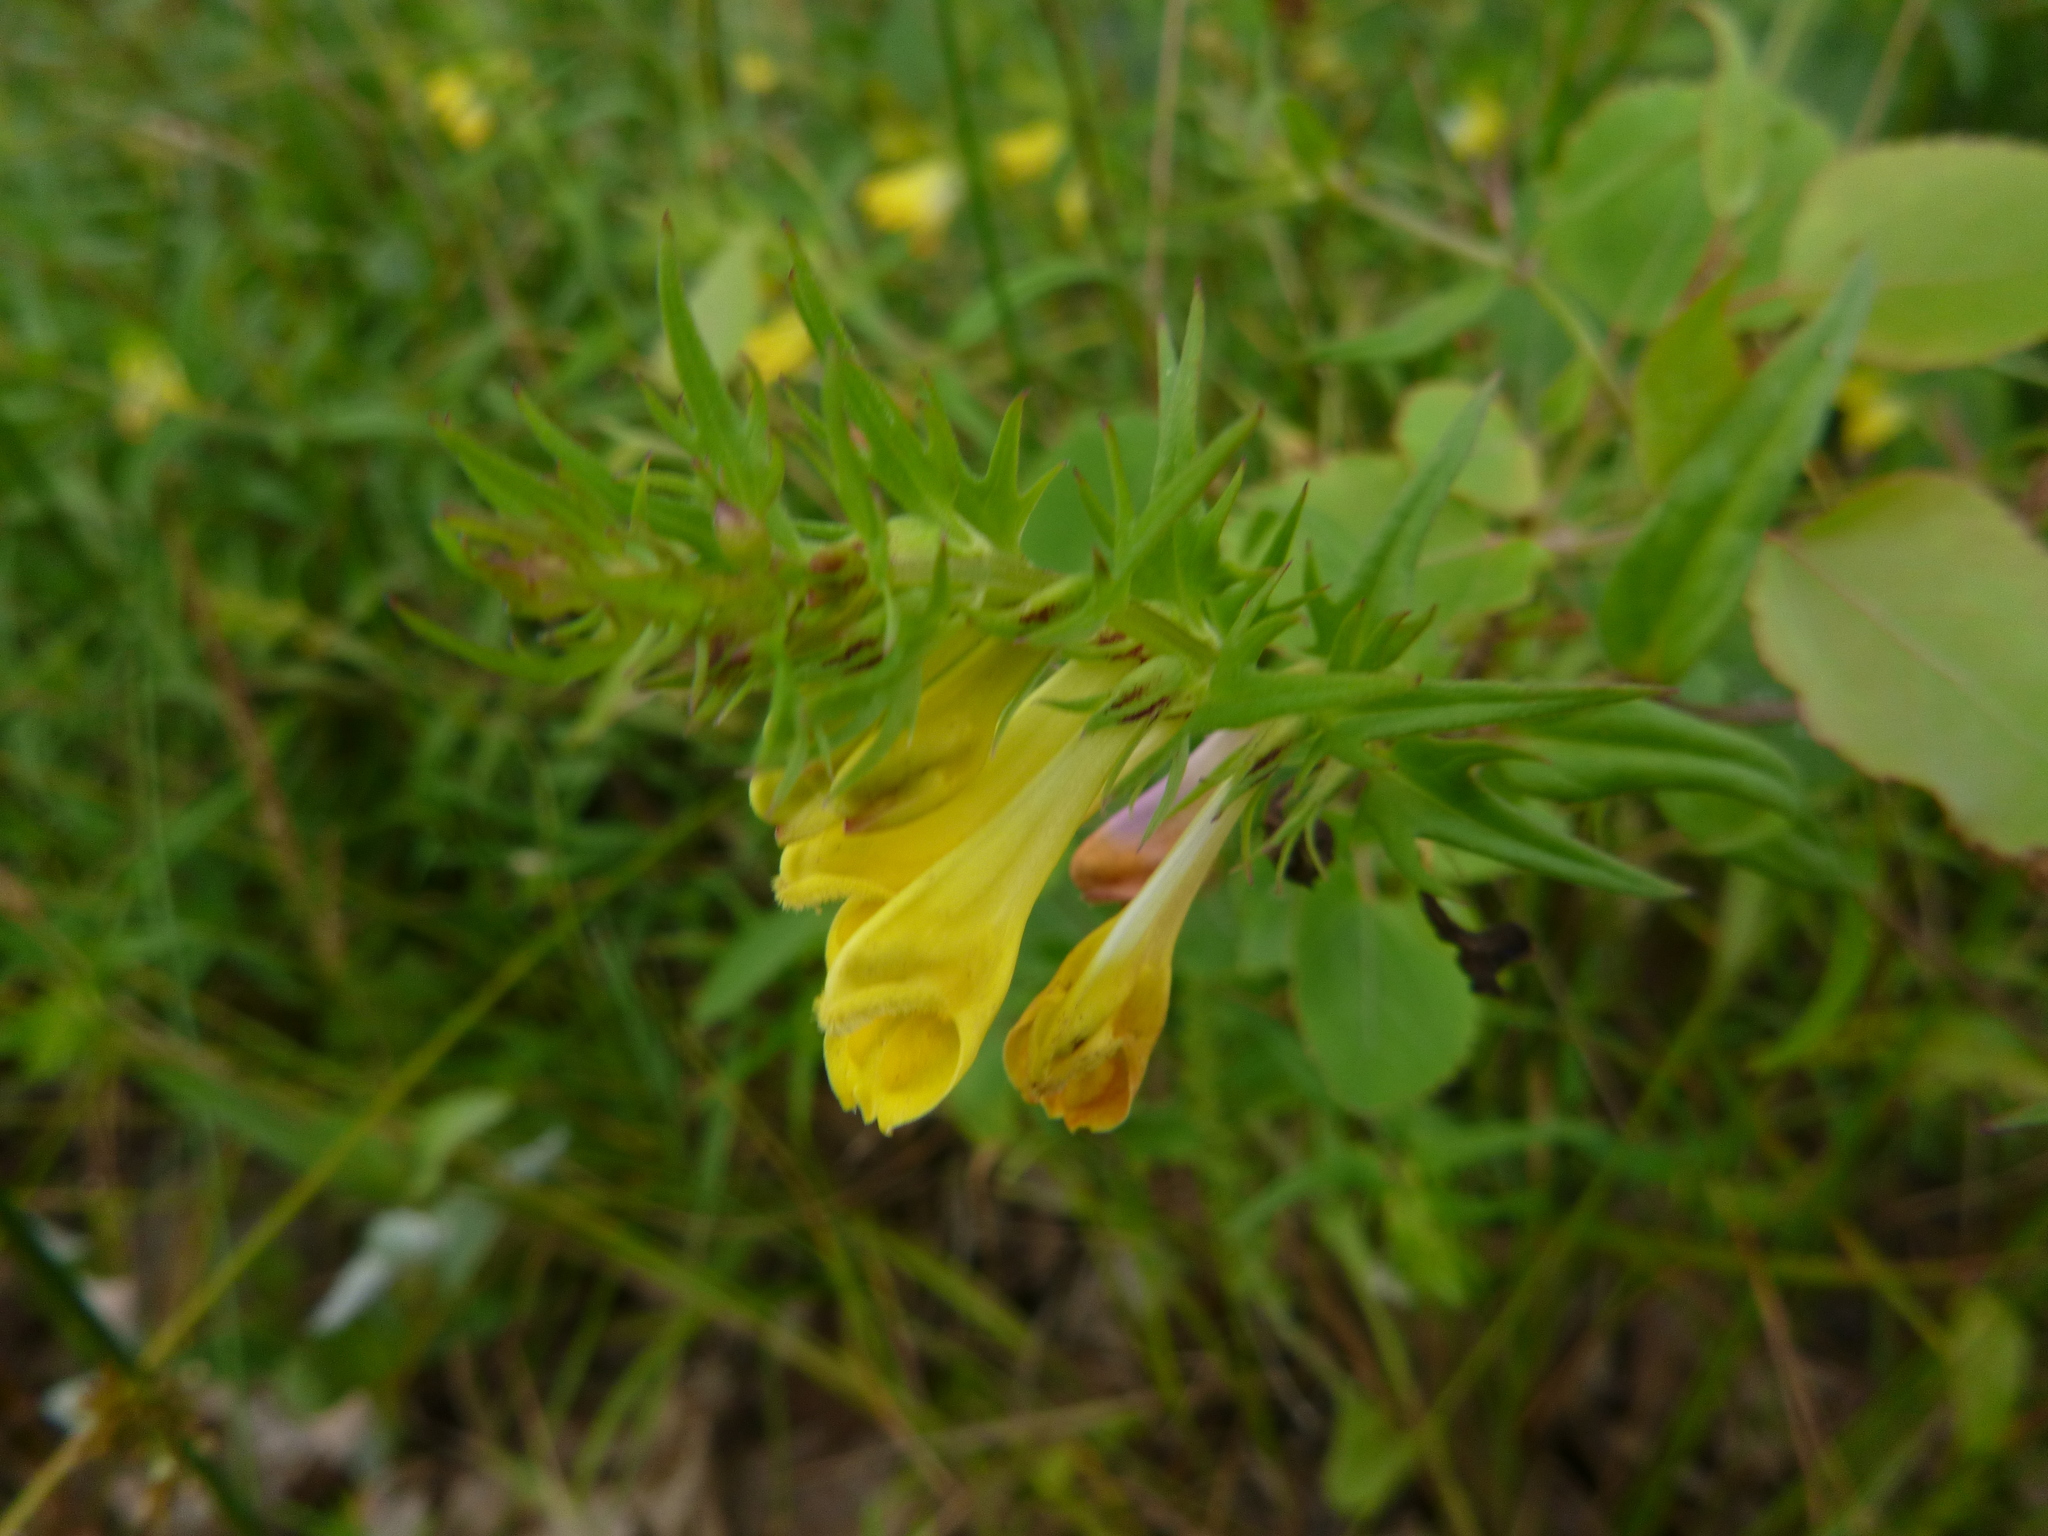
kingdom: Plantae
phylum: Tracheophyta
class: Magnoliopsida
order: Lamiales
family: Orobanchaceae
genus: Melampyrum
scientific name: Melampyrum pratense
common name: Common cow-wheat
